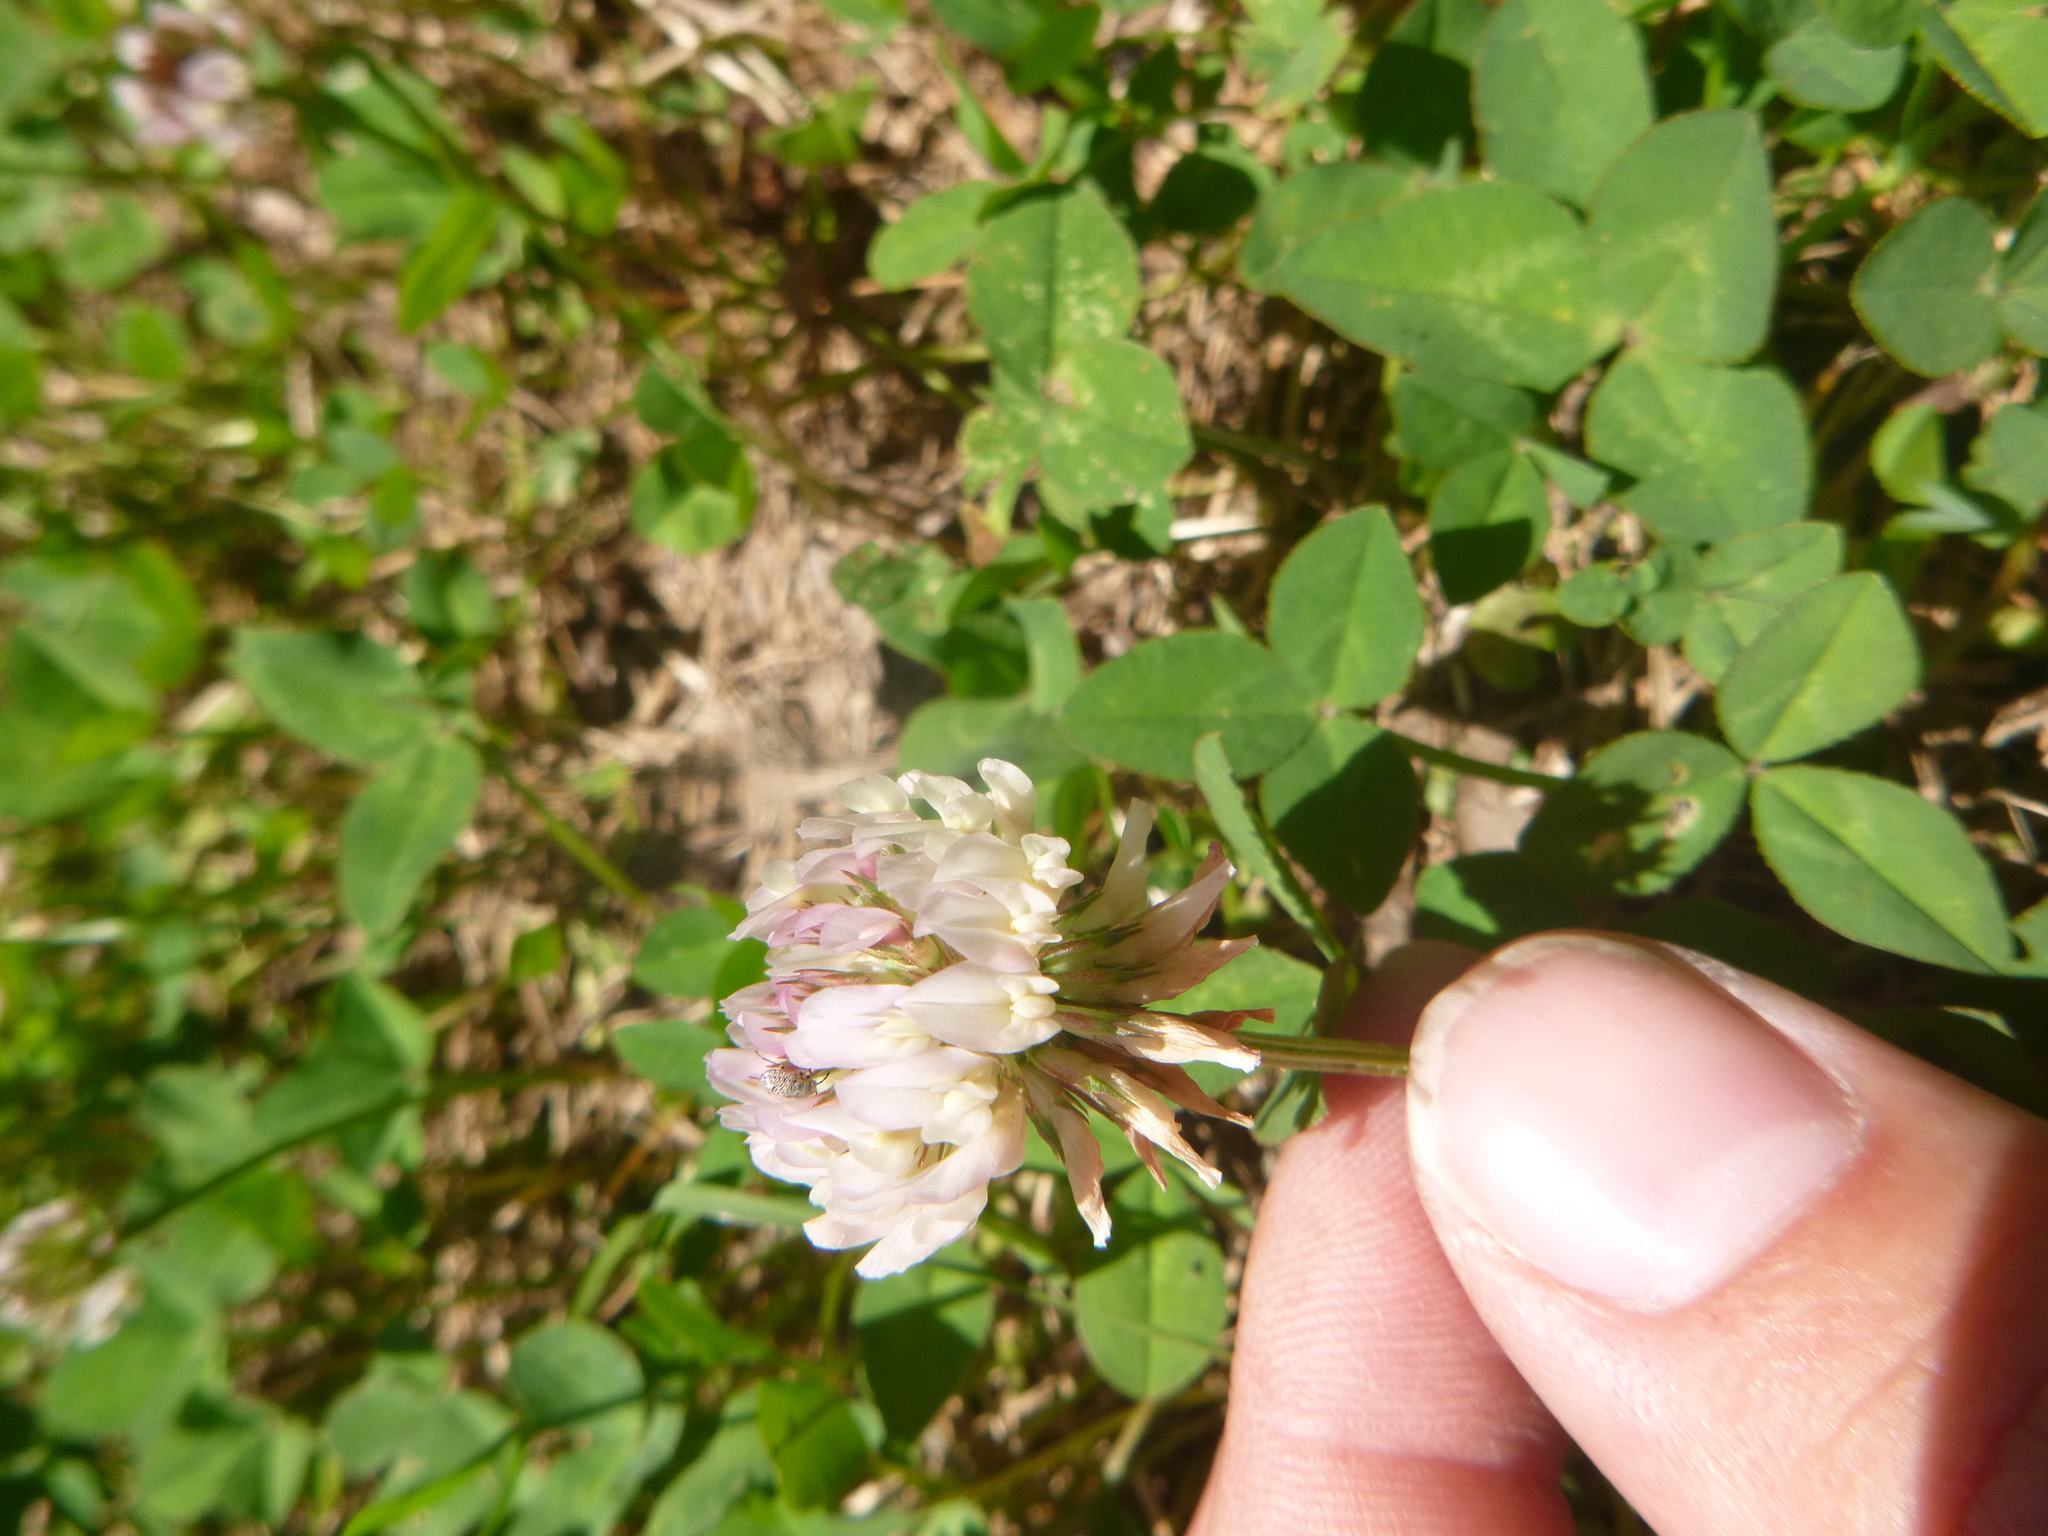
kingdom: Plantae
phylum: Tracheophyta
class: Magnoliopsida
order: Fabales
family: Fabaceae
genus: Trifolium
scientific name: Trifolium repens
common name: White clover
